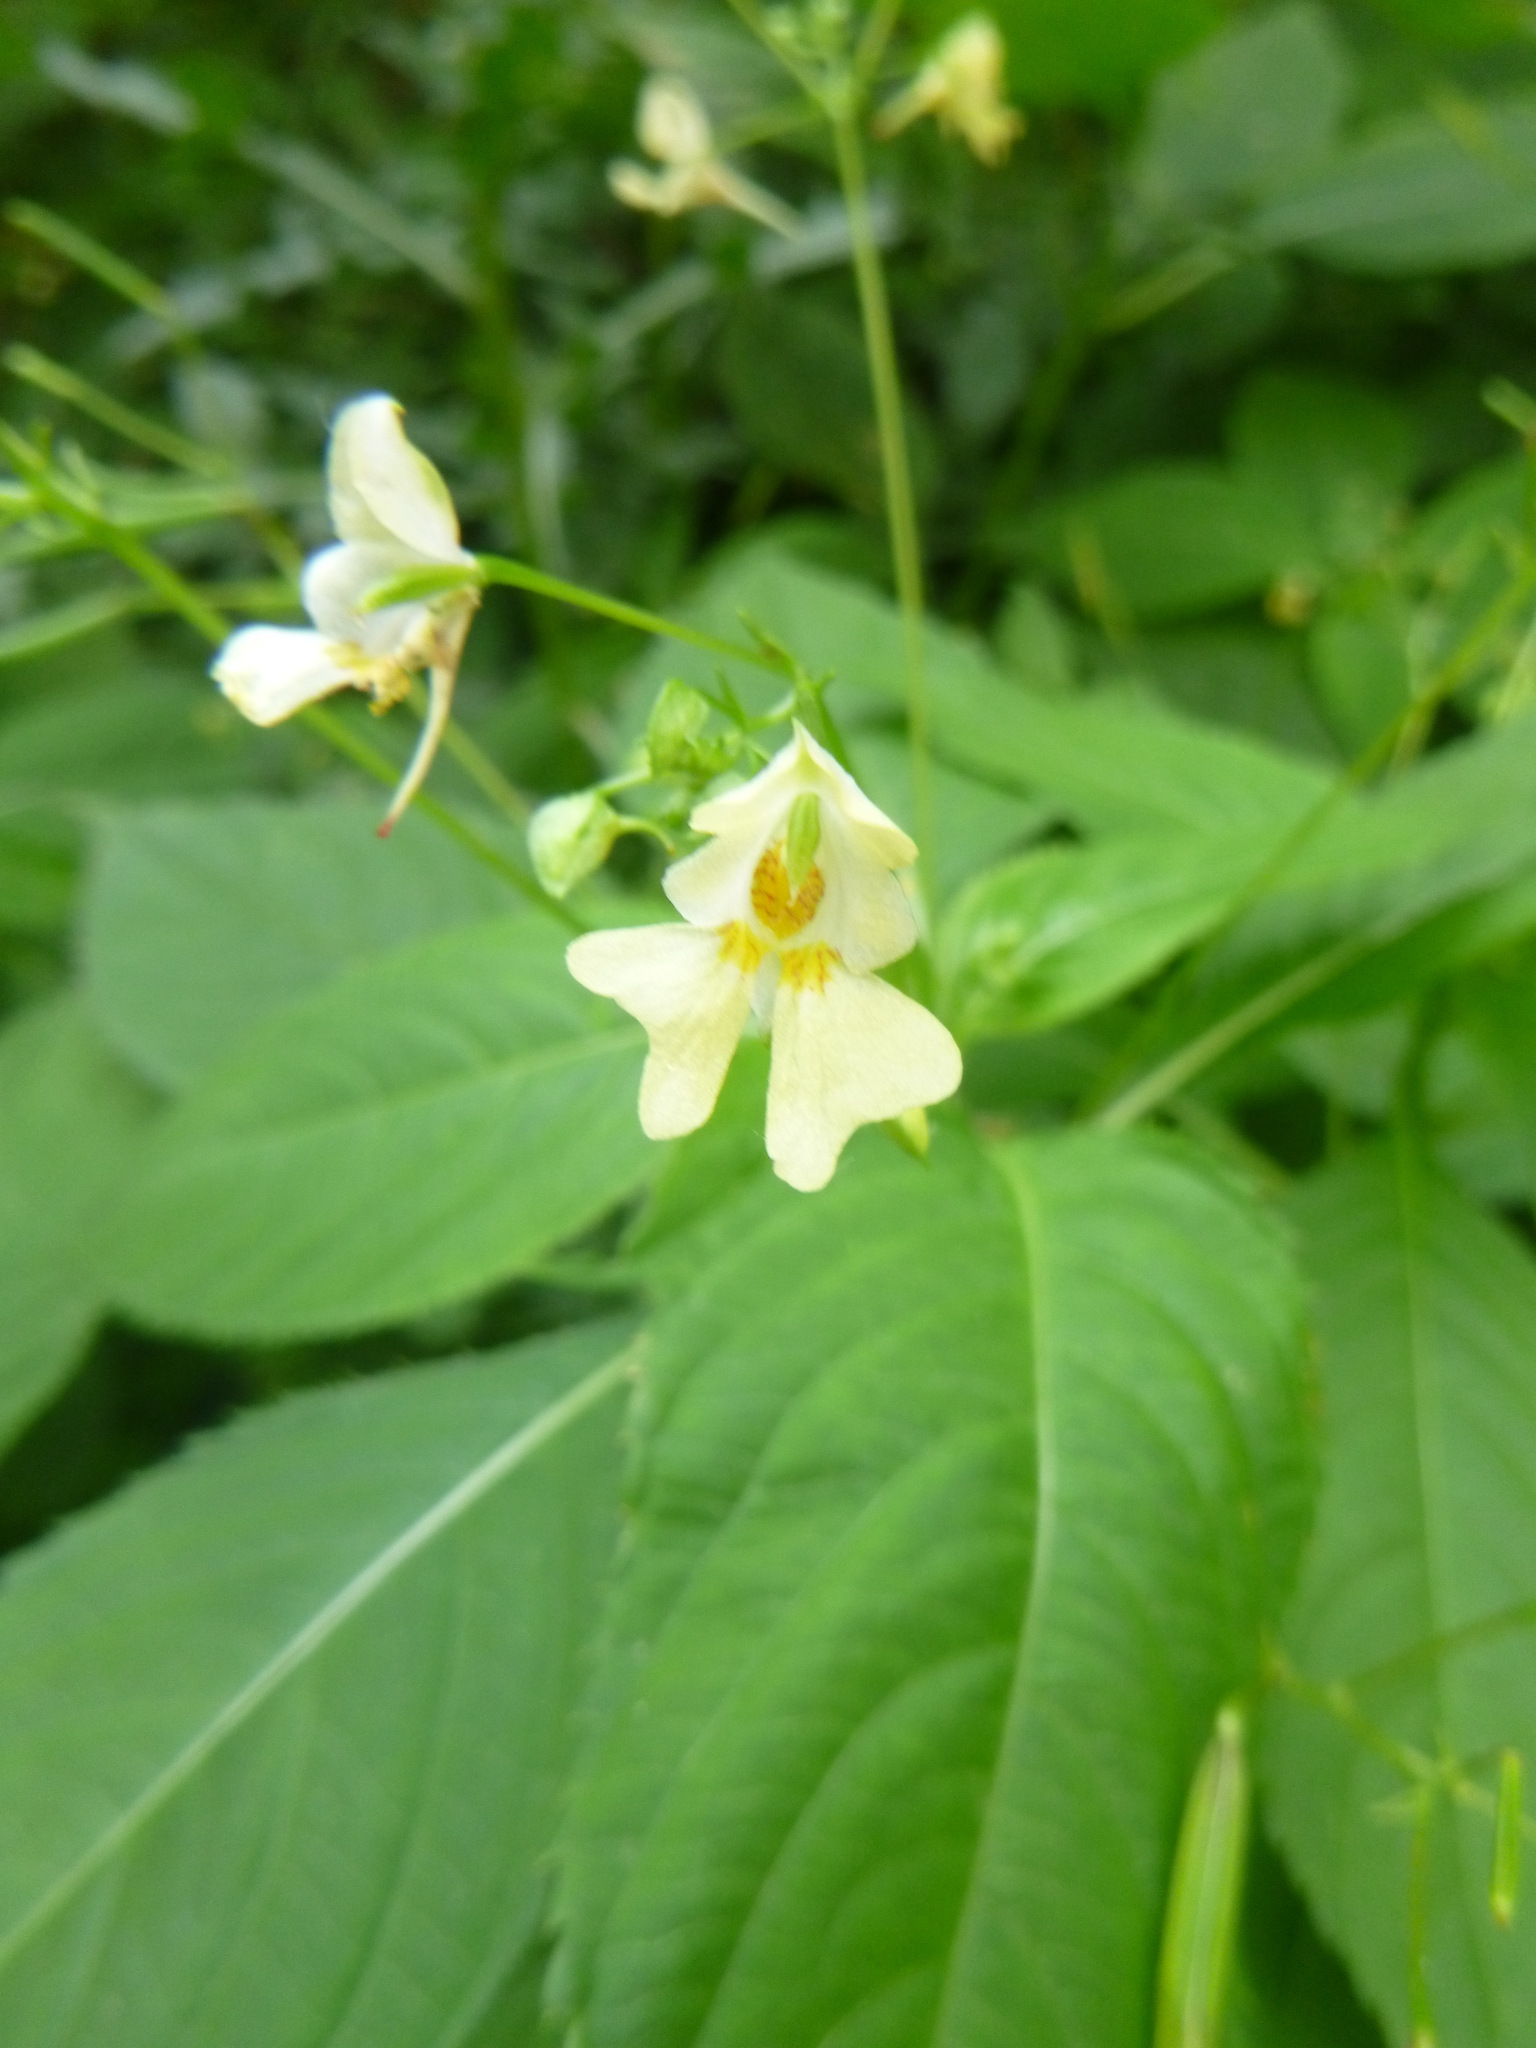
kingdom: Plantae
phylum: Tracheophyta
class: Magnoliopsida
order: Ericales
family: Balsaminaceae
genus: Impatiens
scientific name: Impatiens parviflora
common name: Small balsam
